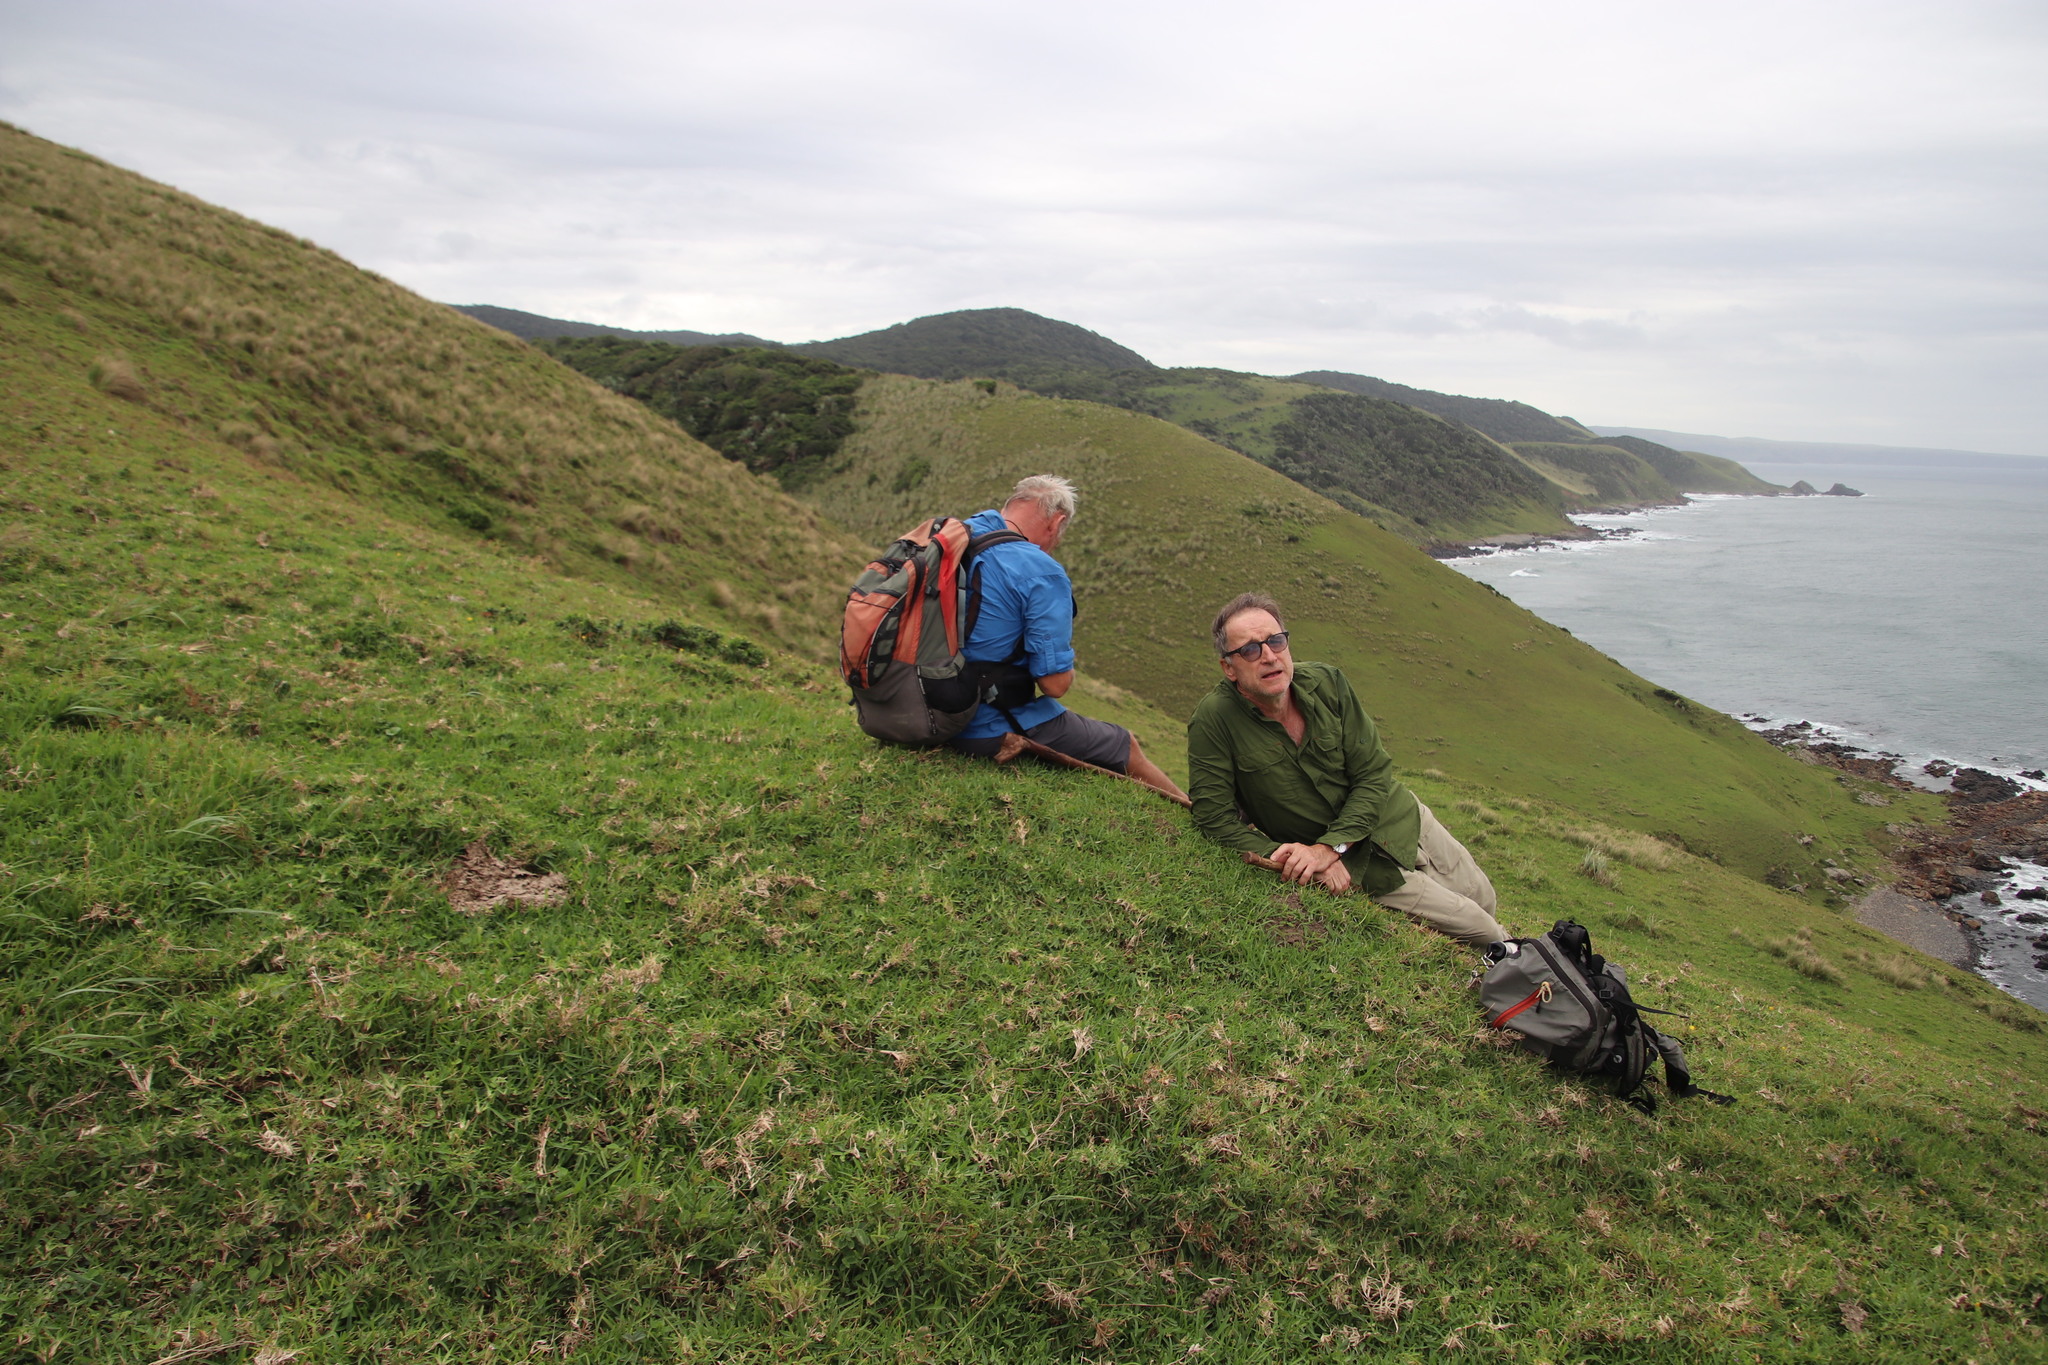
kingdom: Plantae
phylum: Tracheophyta
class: Liliopsida
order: Poales
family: Poaceae
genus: Stenotaphrum
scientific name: Stenotaphrum secundatum
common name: St. augustine grass
